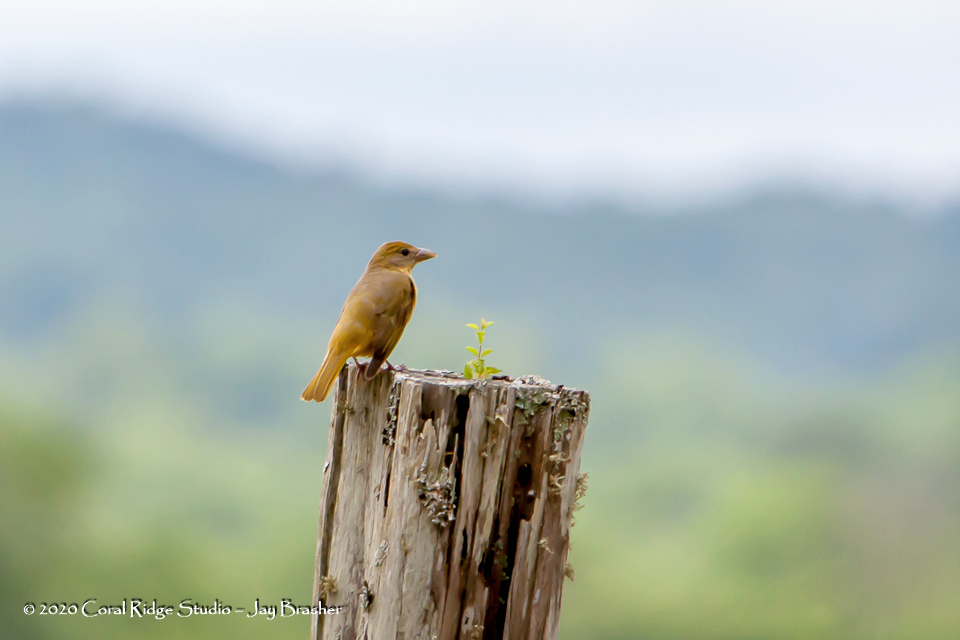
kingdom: Animalia
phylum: Chordata
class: Aves
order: Passeriformes
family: Cardinalidae
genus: Piranga
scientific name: Piranga rubra
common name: Summer tanager
